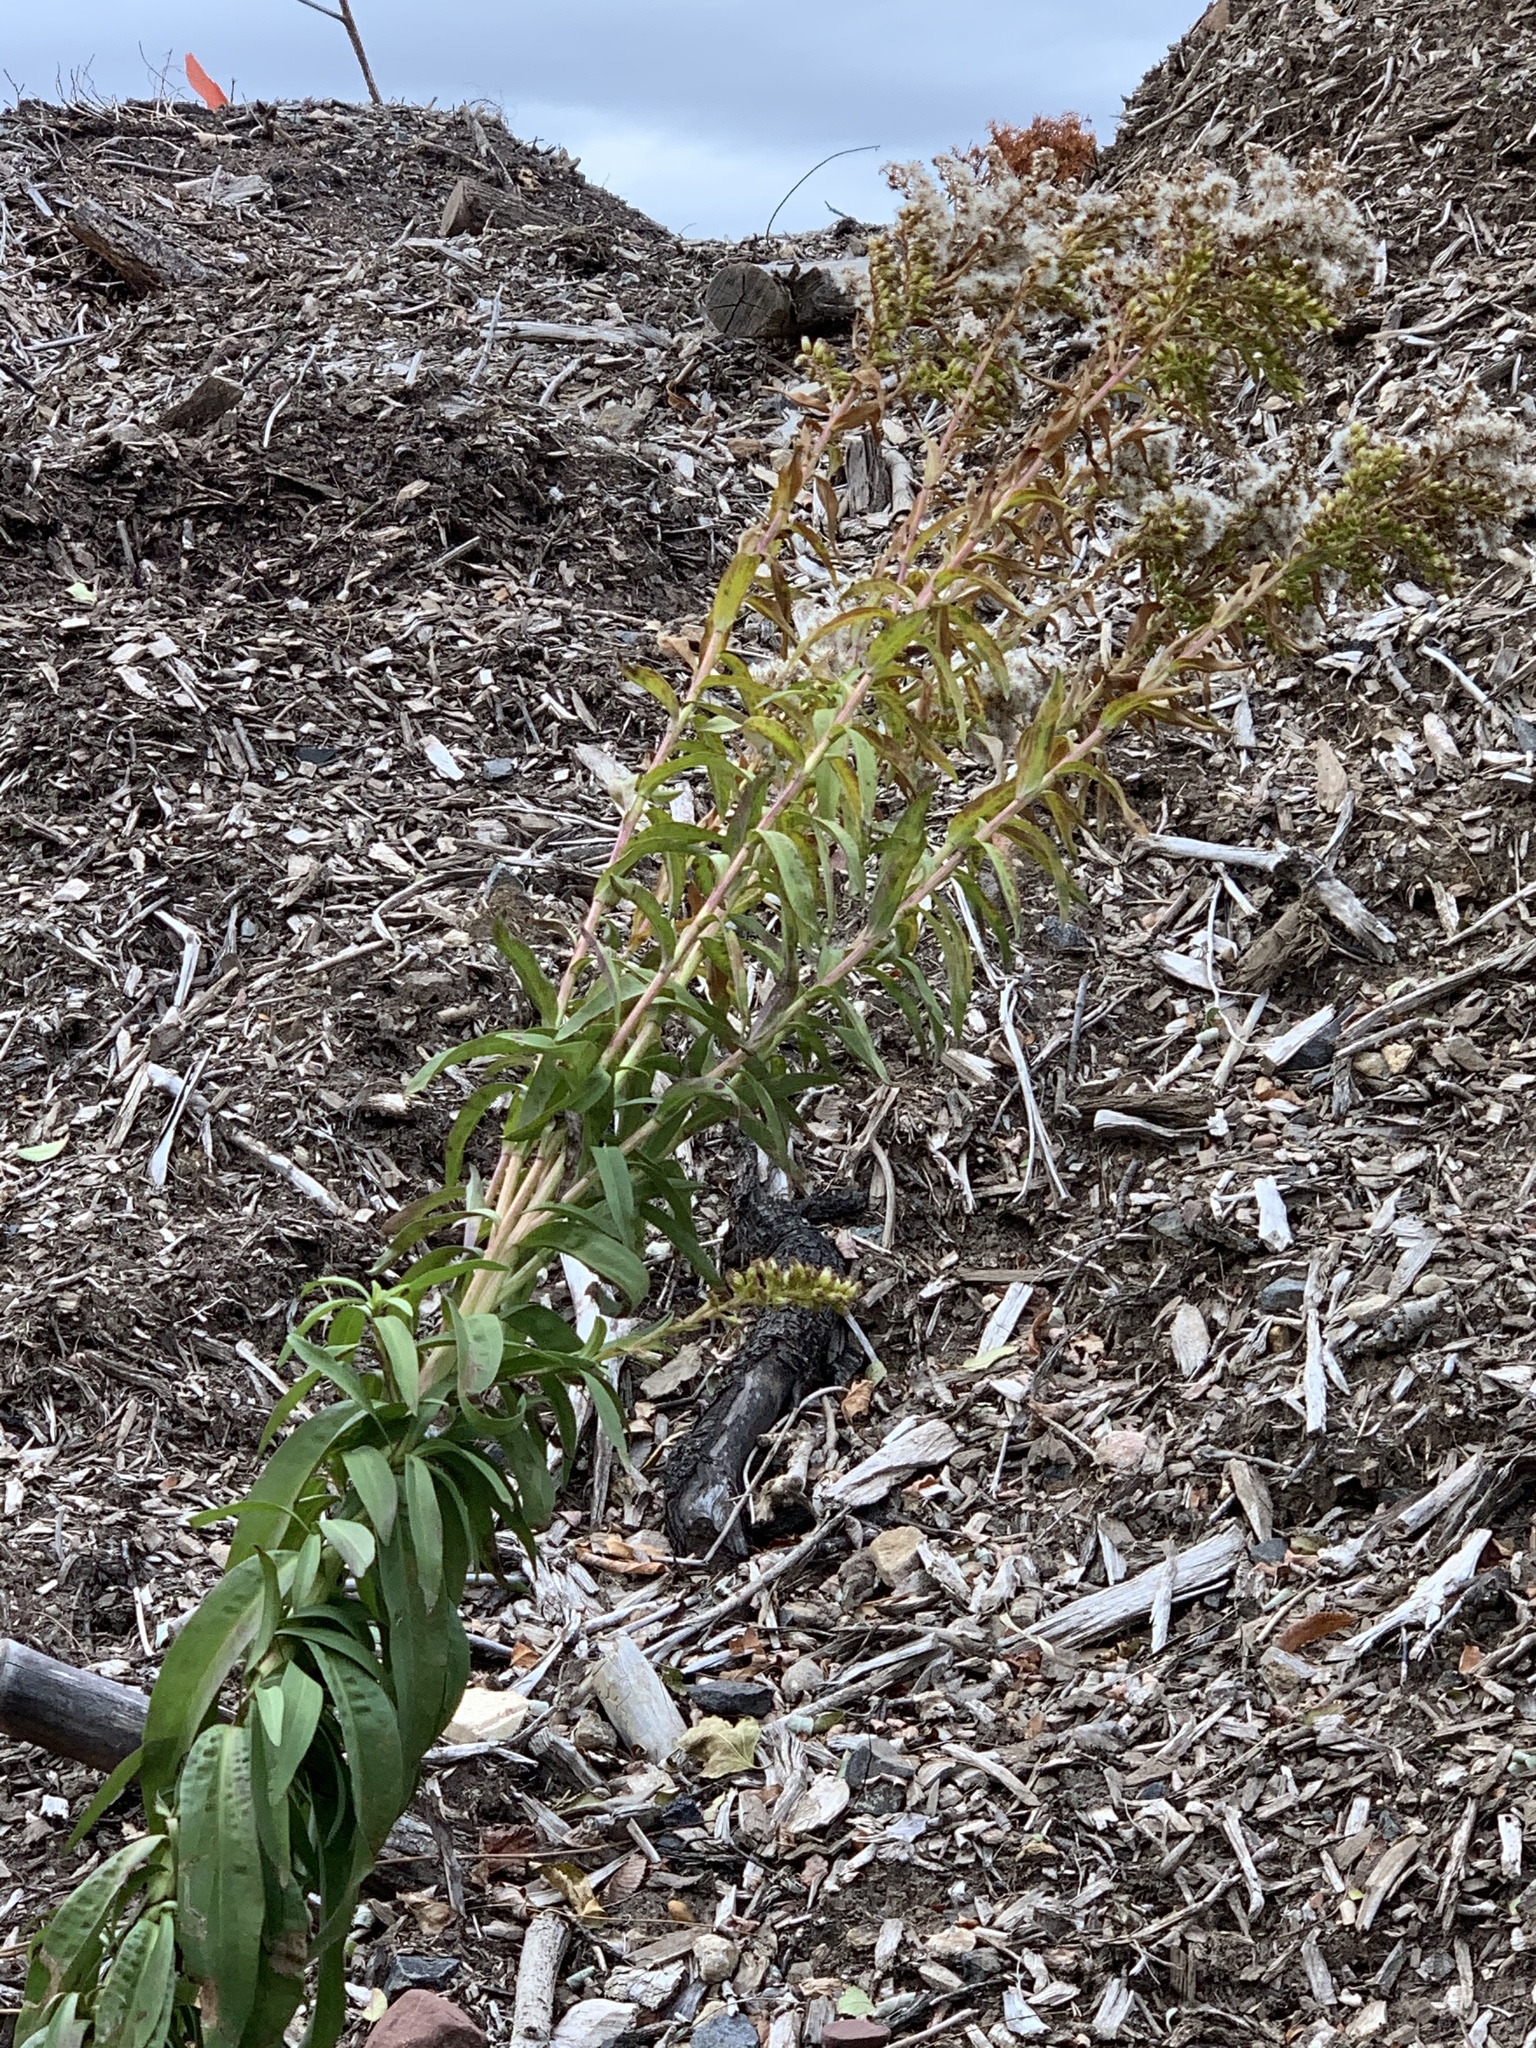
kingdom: Plantae
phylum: Tracheophyta
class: Magnoliopsida
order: Asterales
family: Asteraceae
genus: Solidago
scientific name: Solidago sempervirens
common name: Salt-marsh goldenrod
